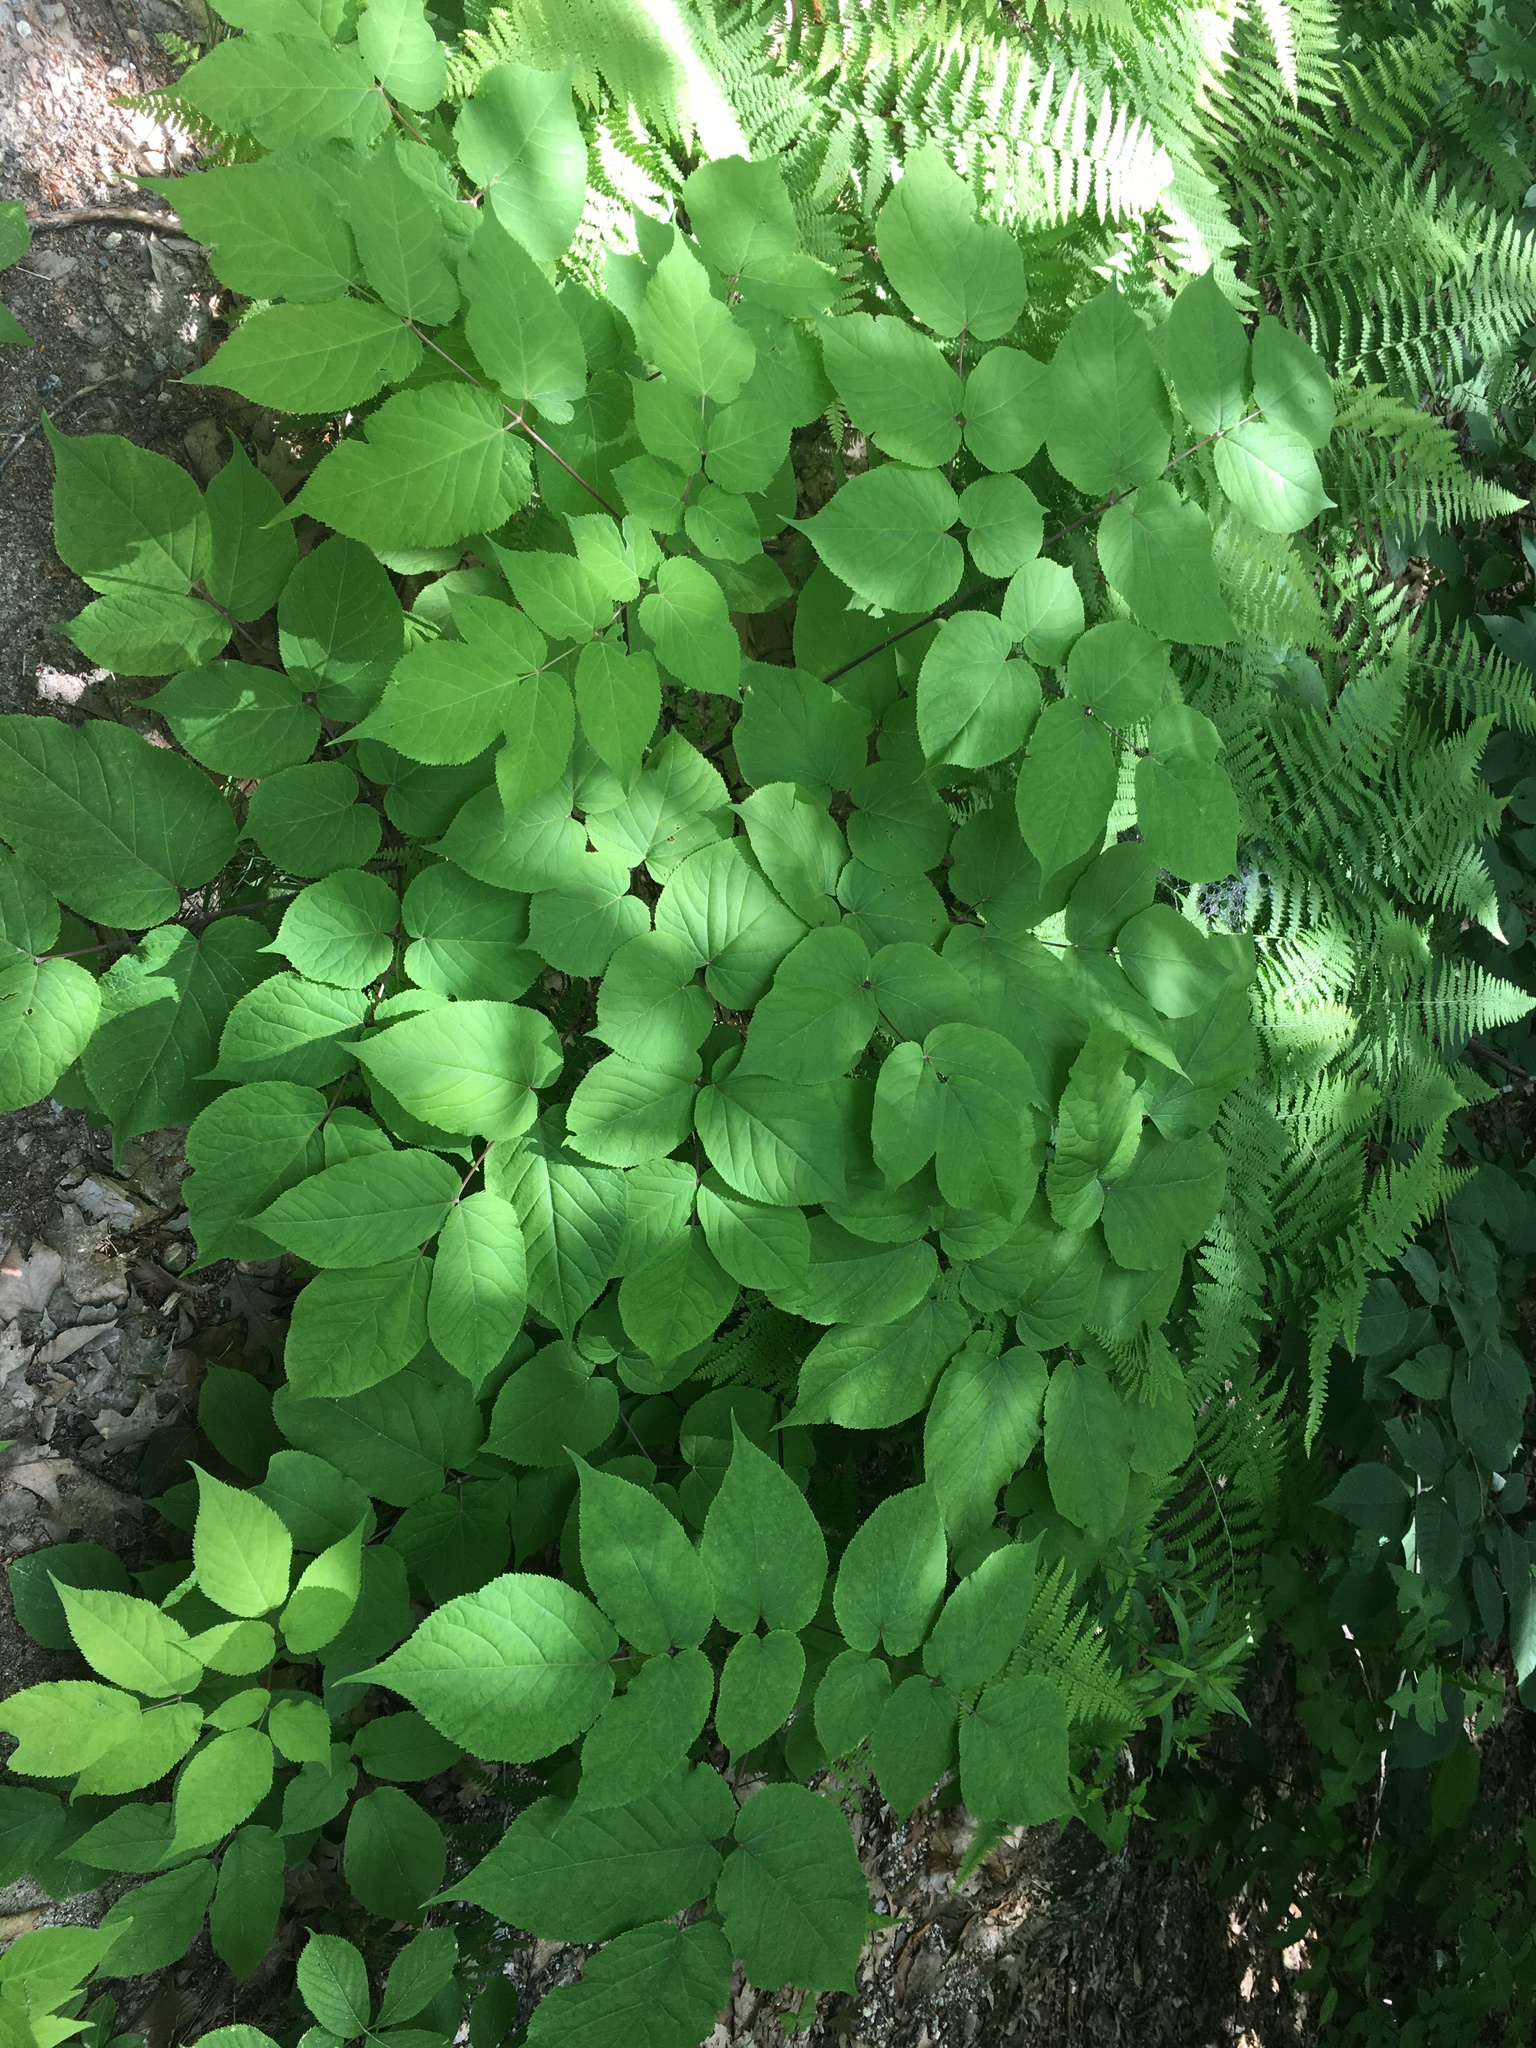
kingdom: Plantae
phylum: Tracheophyta
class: Magnoliopsida
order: Apiales
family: Araliaceae
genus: Aralia
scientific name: Aralia racemosa
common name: American-spikenard
